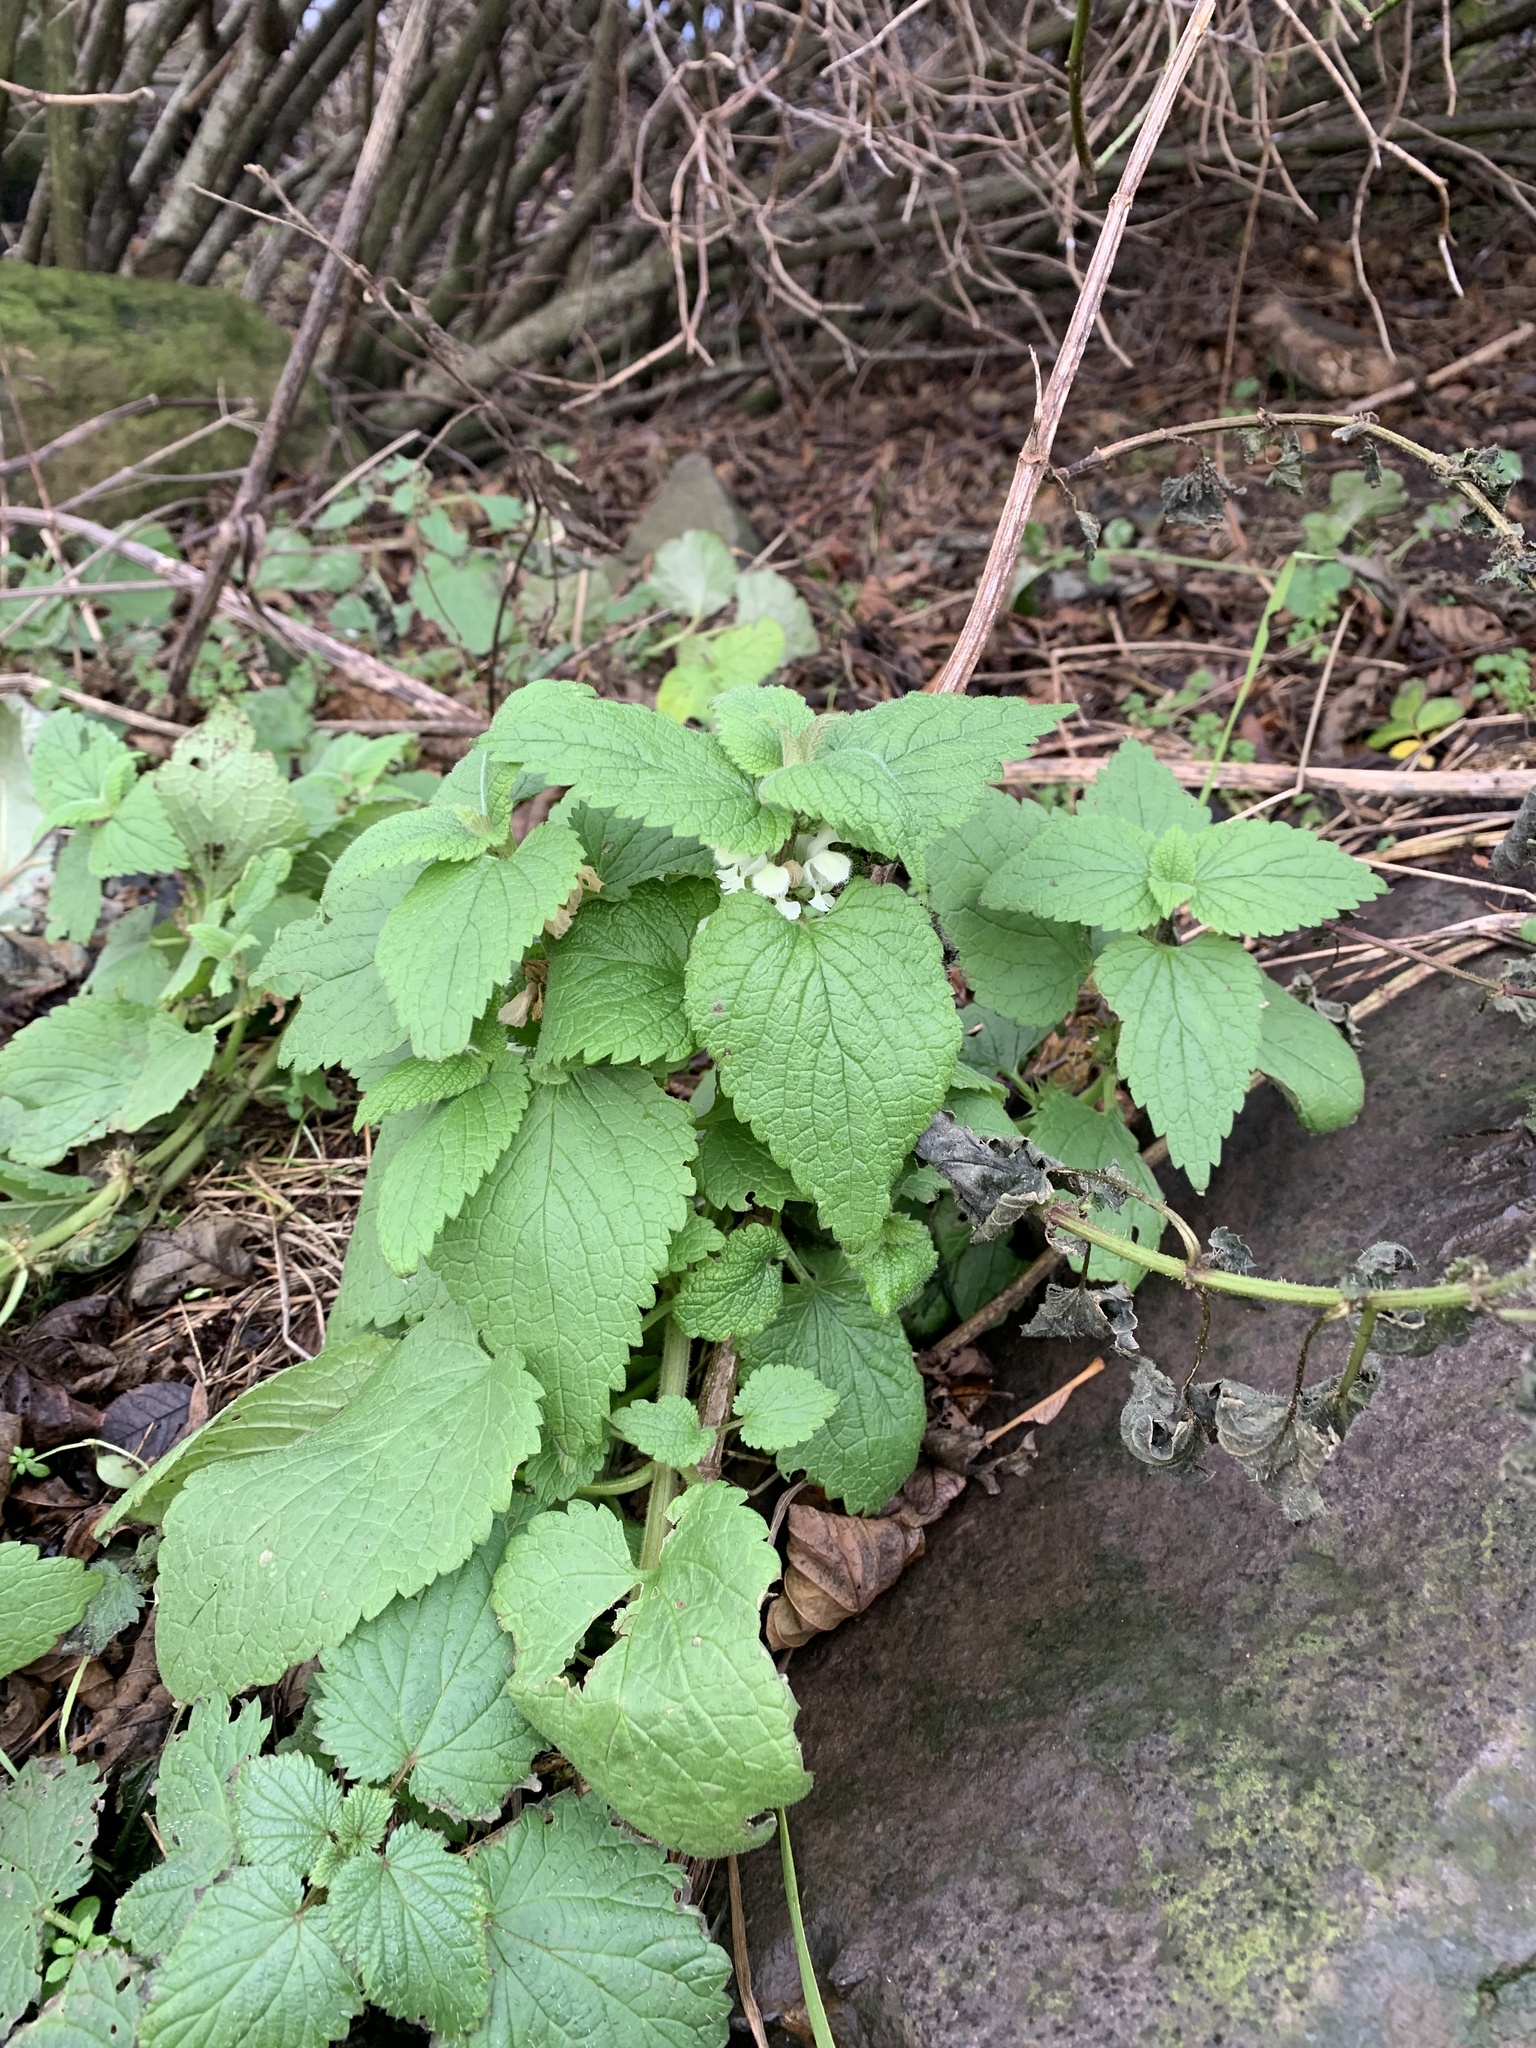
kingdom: Plantae
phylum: Tracheophyta
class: Magnoliopsida
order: Lamiales
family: Lamiaceae
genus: Lamium
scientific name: Lamium album
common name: White dead-nettle
